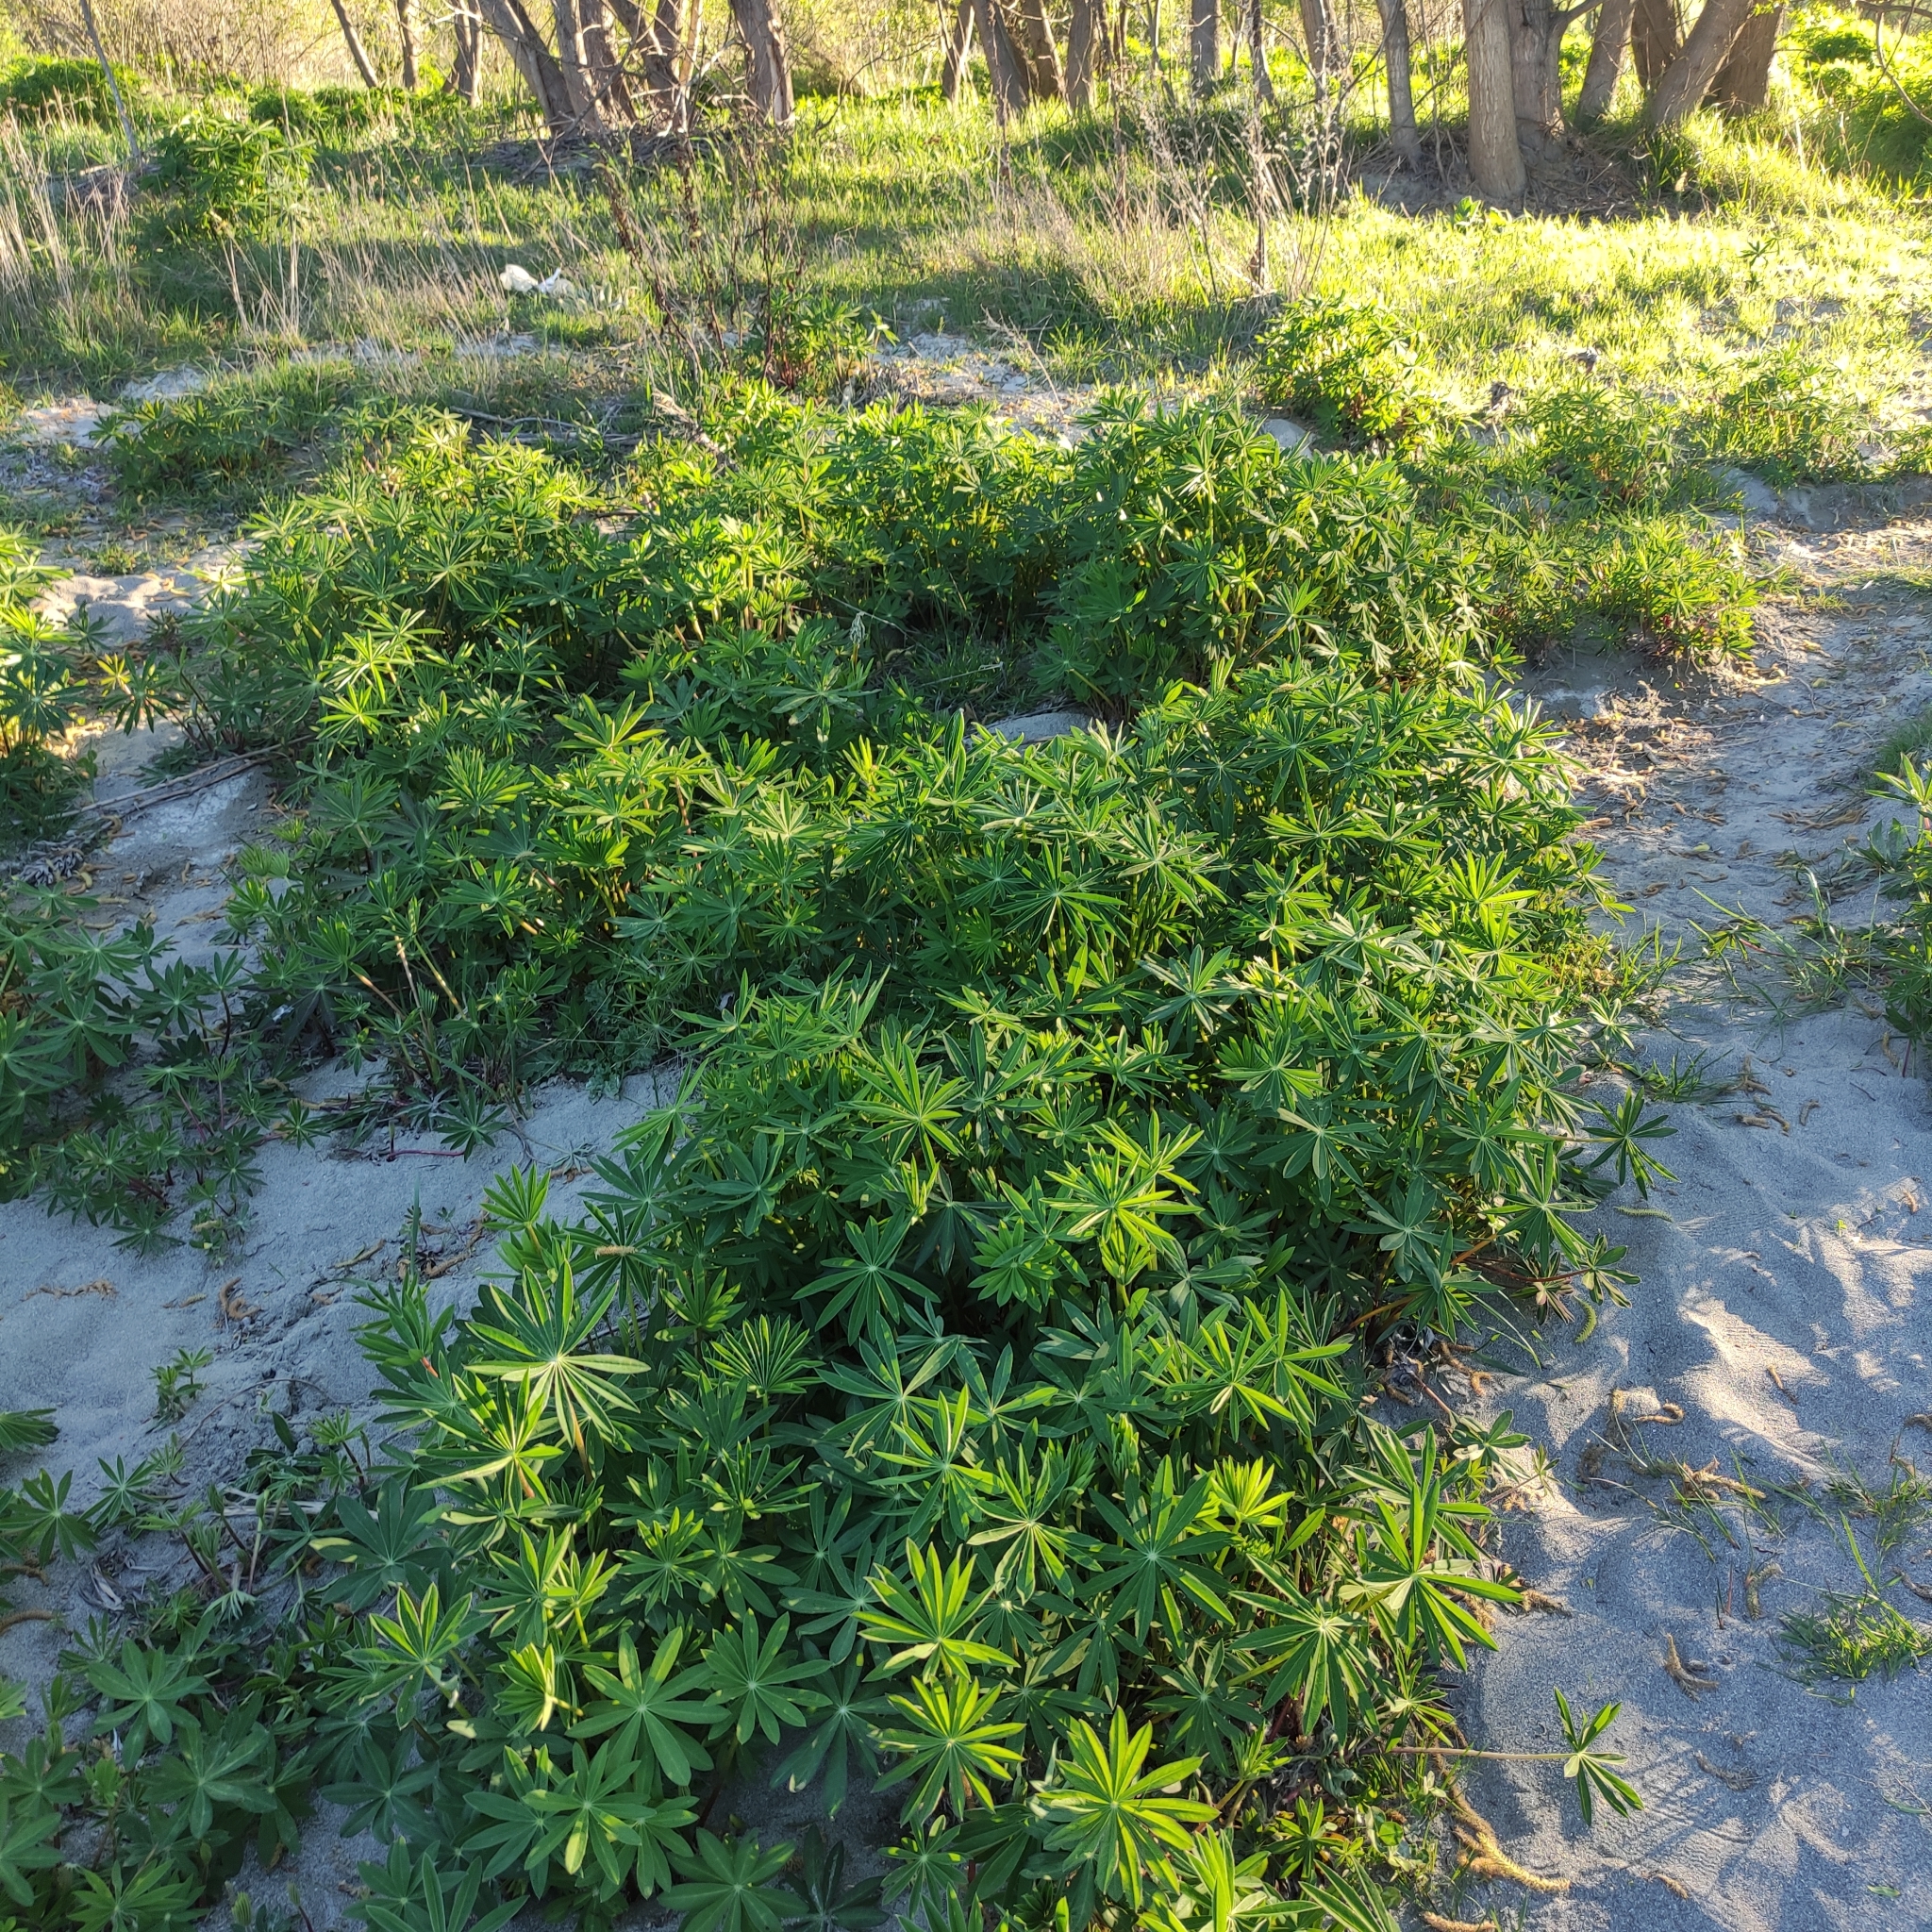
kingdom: Plantae
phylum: Tracheophyta
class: Magnoliopsida
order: Fabales
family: Fabaceae
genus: Lupinus
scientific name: Lupinus polyphyllus
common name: Garden lupin
